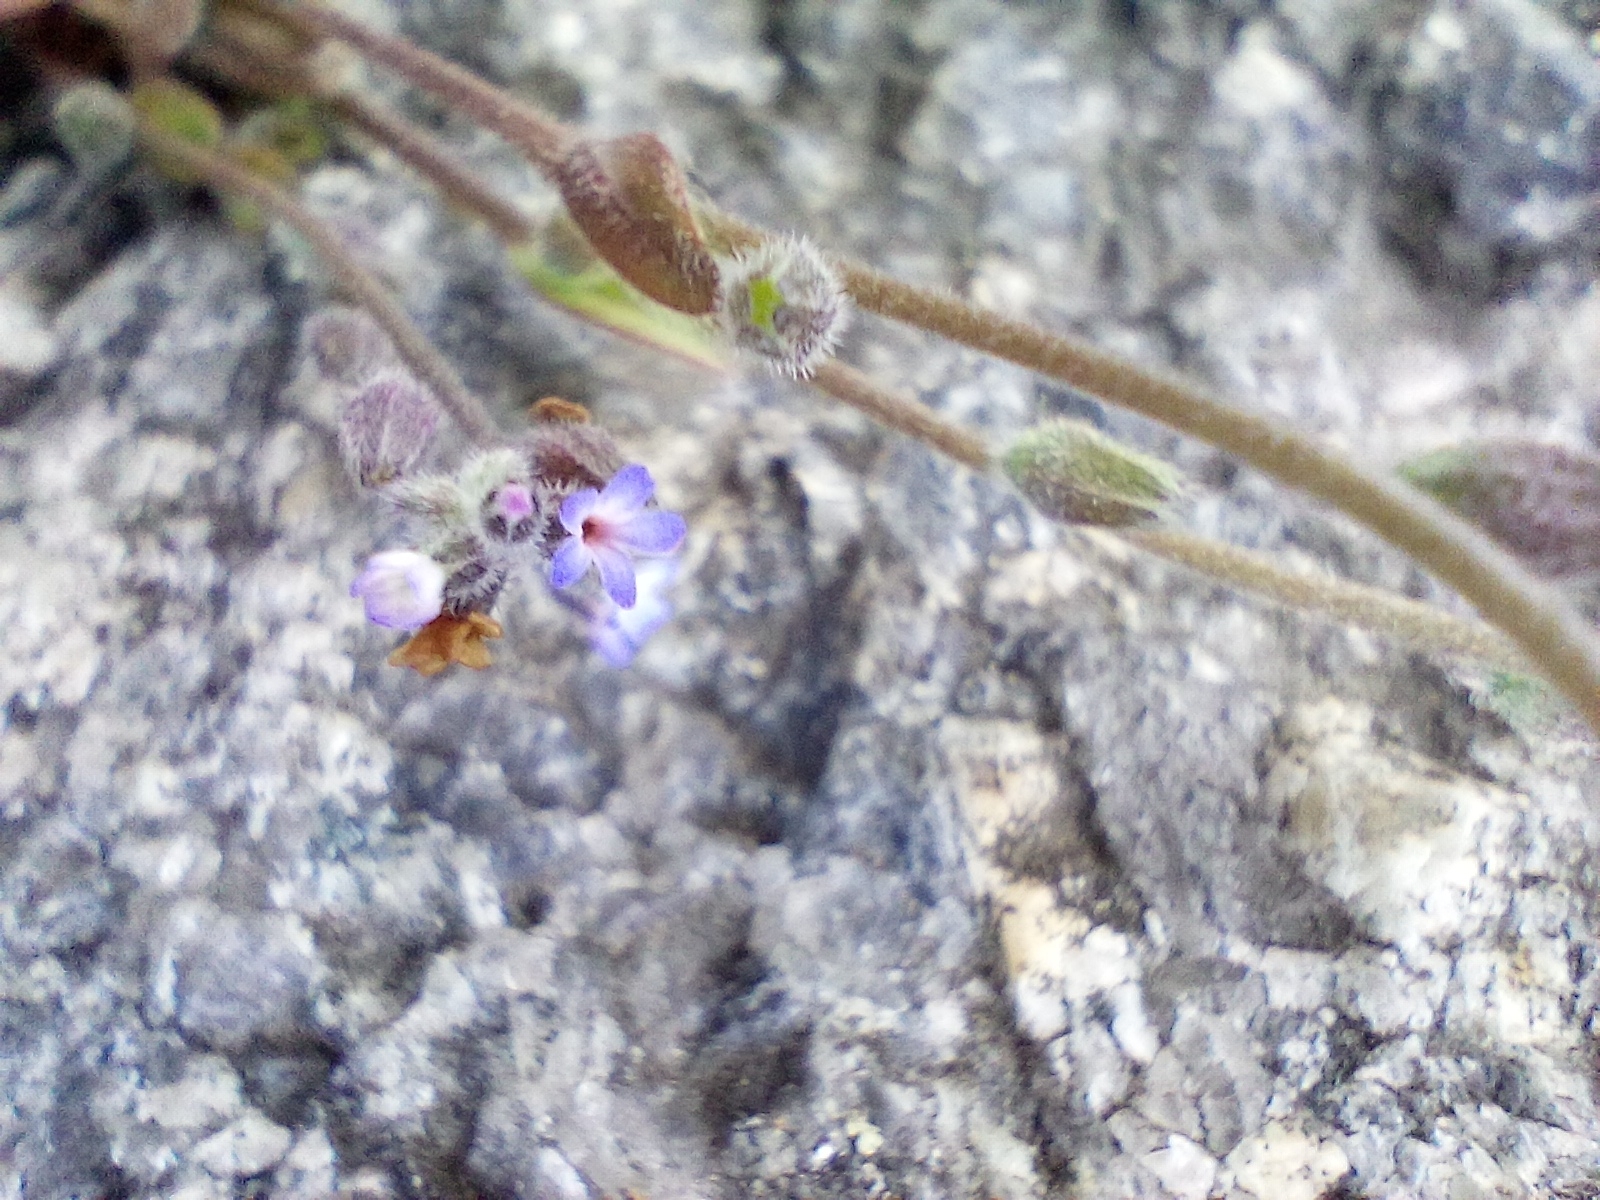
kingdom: Plantae
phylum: Tracheophyta
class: Magnoliopsida
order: Boraginales
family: Boraginaceae
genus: Myosotis
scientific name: Myosotis stricta
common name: Strict forget-me-not
